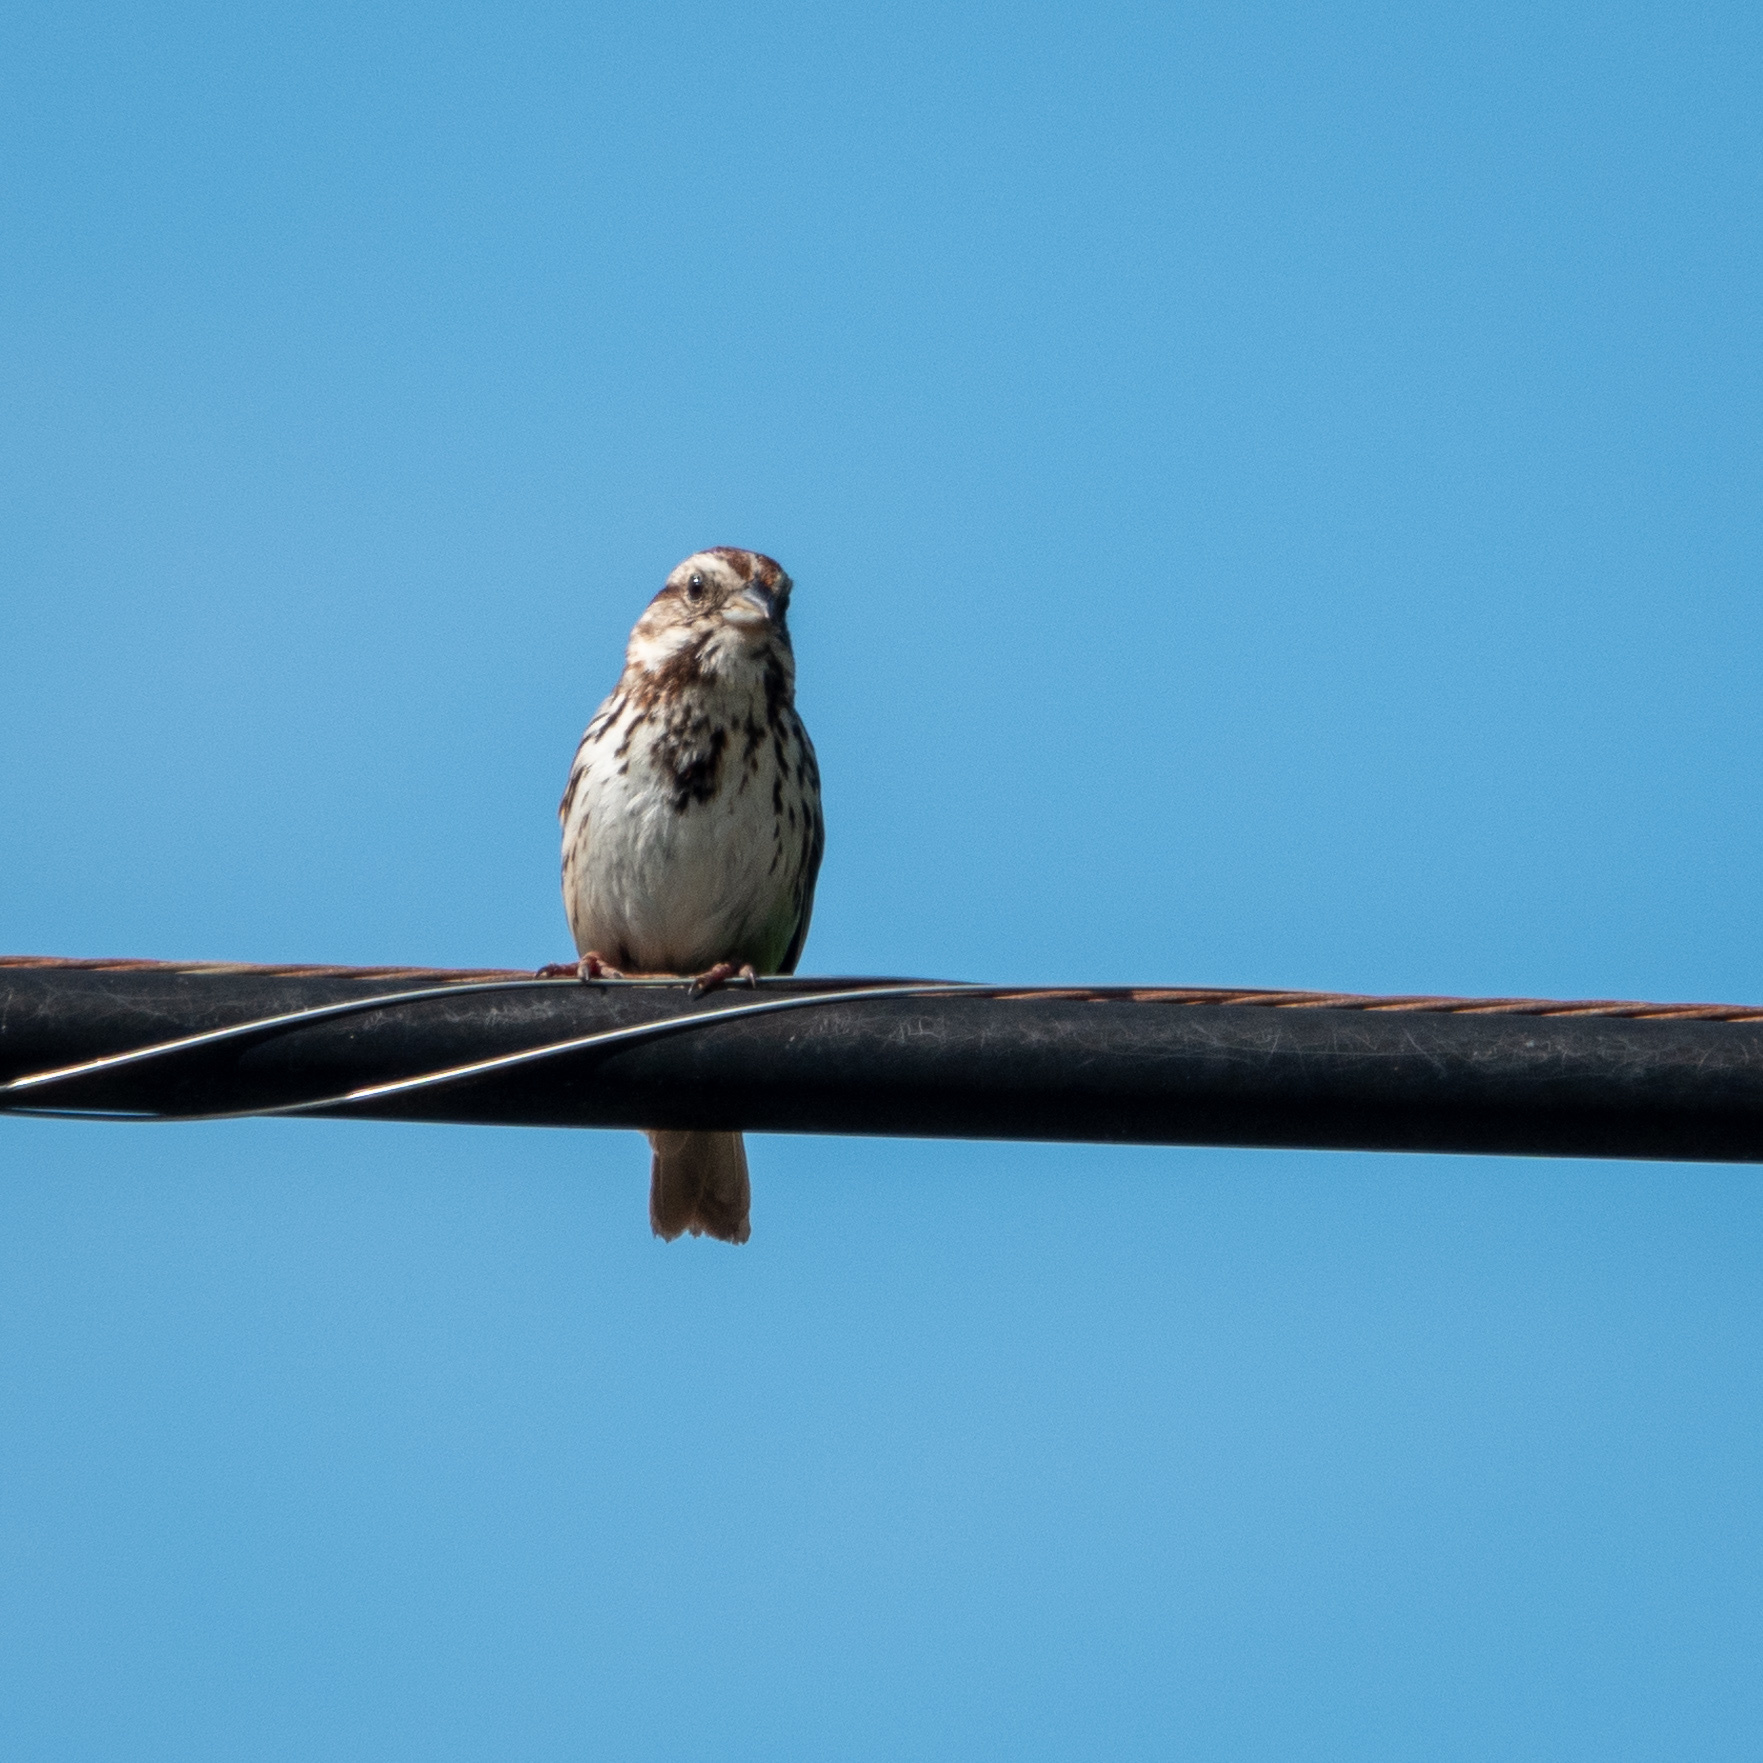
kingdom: Animalia
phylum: Chordata
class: Aves
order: Passeriformes
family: Passerellidae
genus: Melospiza
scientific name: Melospiza melodia
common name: Song sparrow
